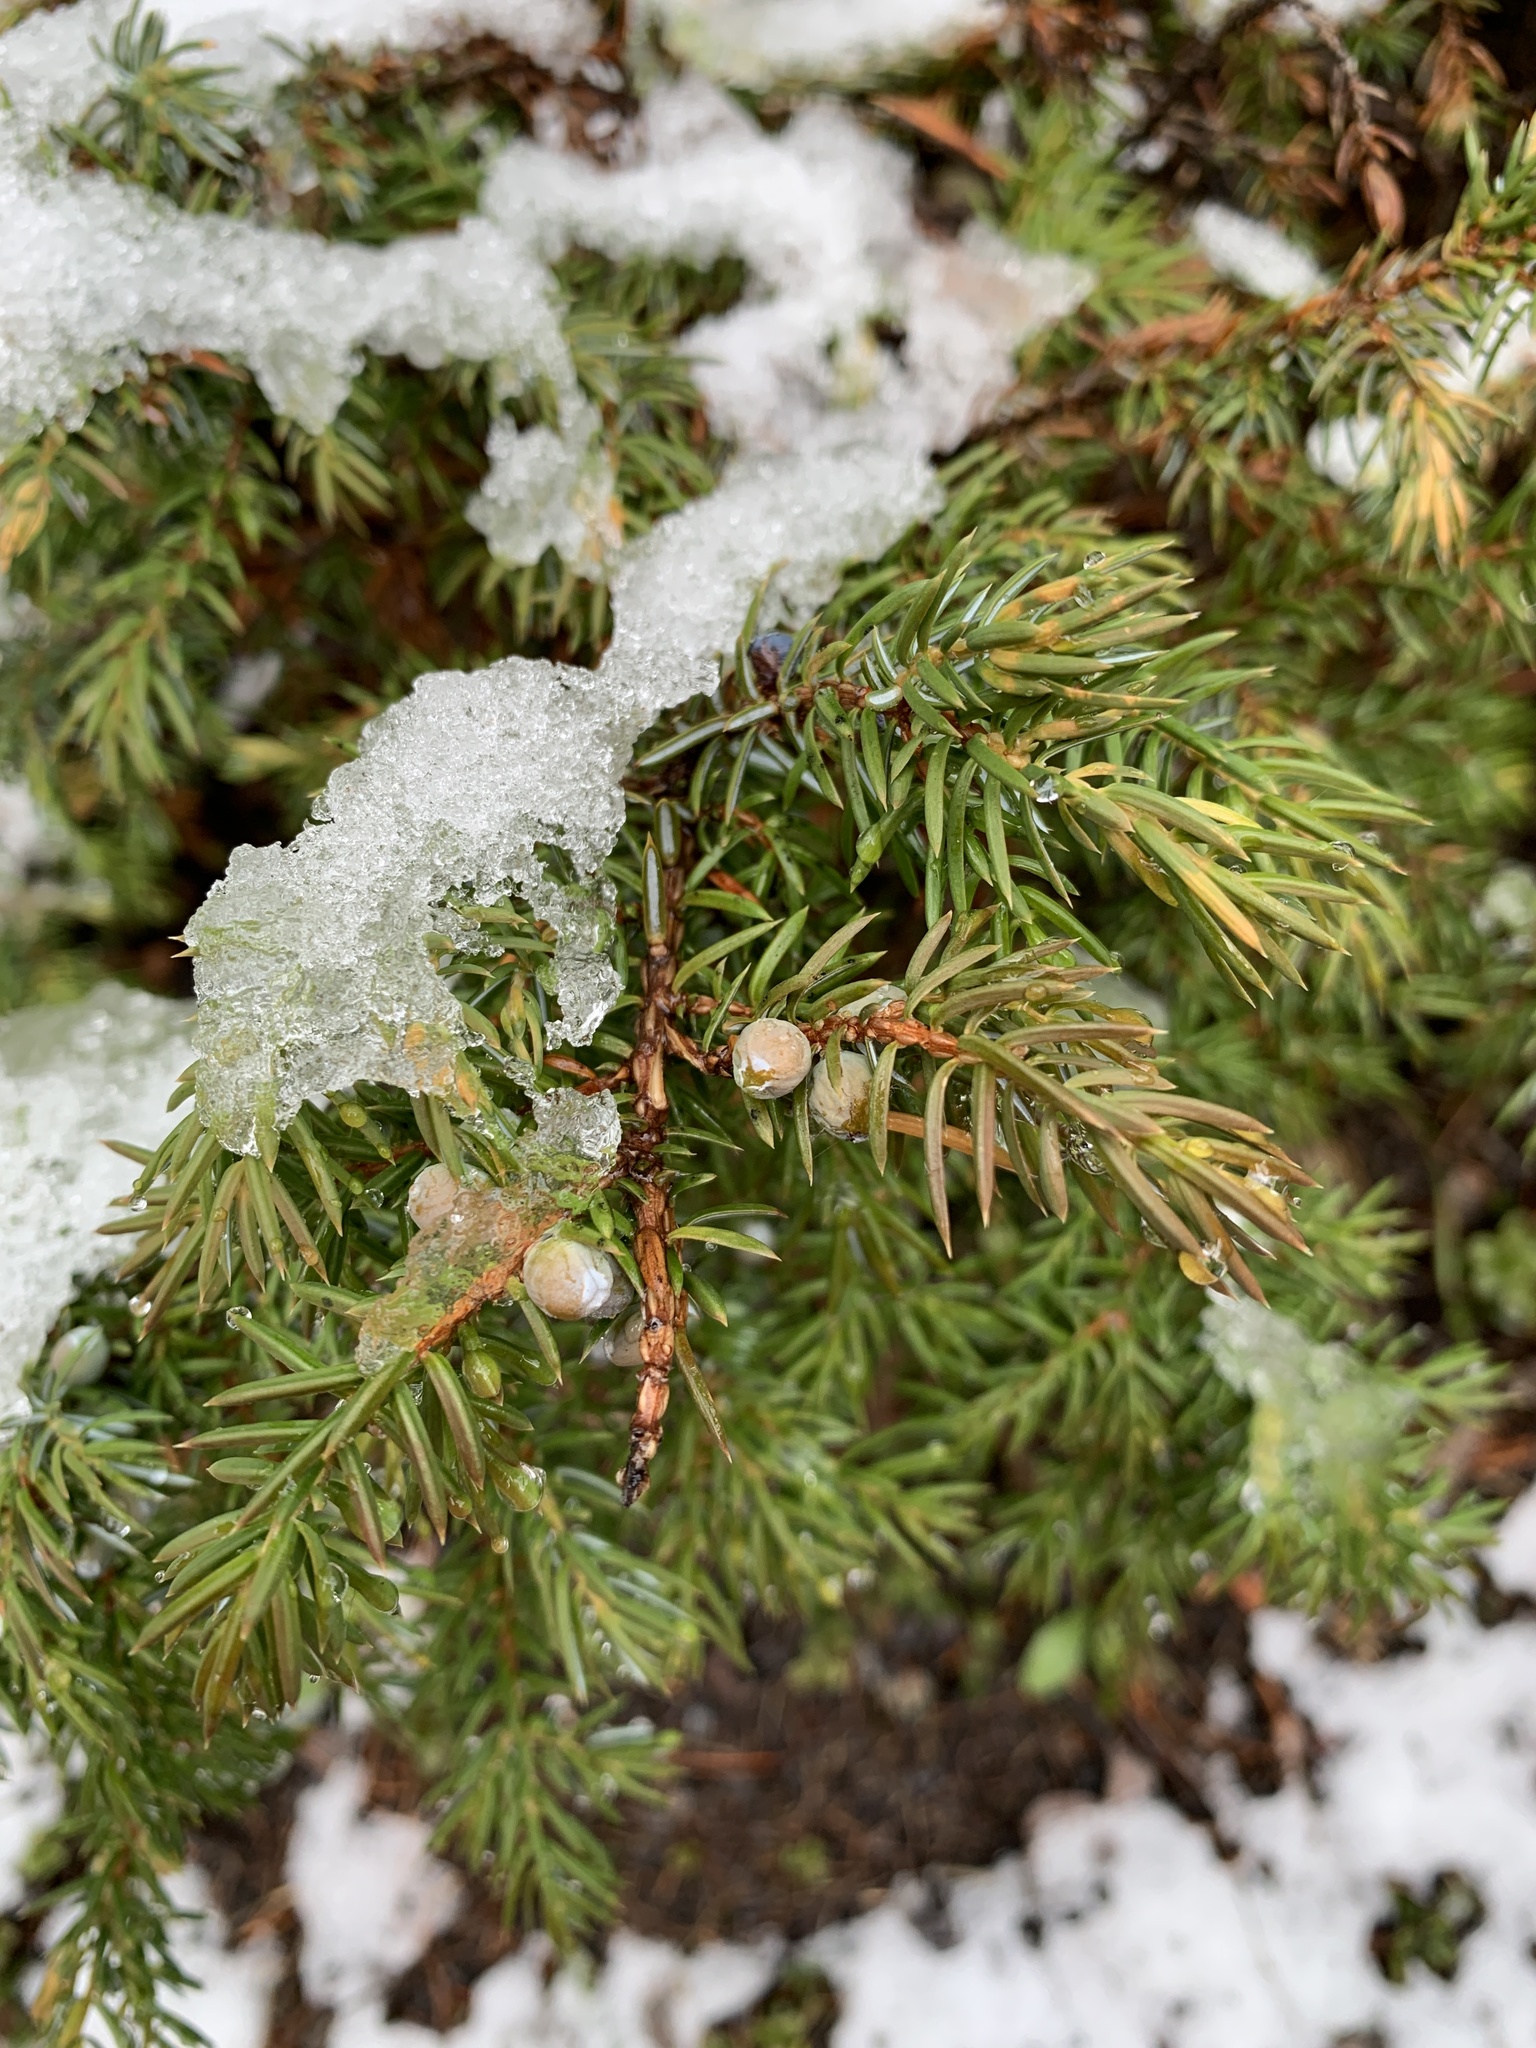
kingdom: Plantae
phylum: Tracheophyta
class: Pinopsida
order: Pinales
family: Cupressaceae
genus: Juniperus
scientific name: Juniperus communis
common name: Common juniper
